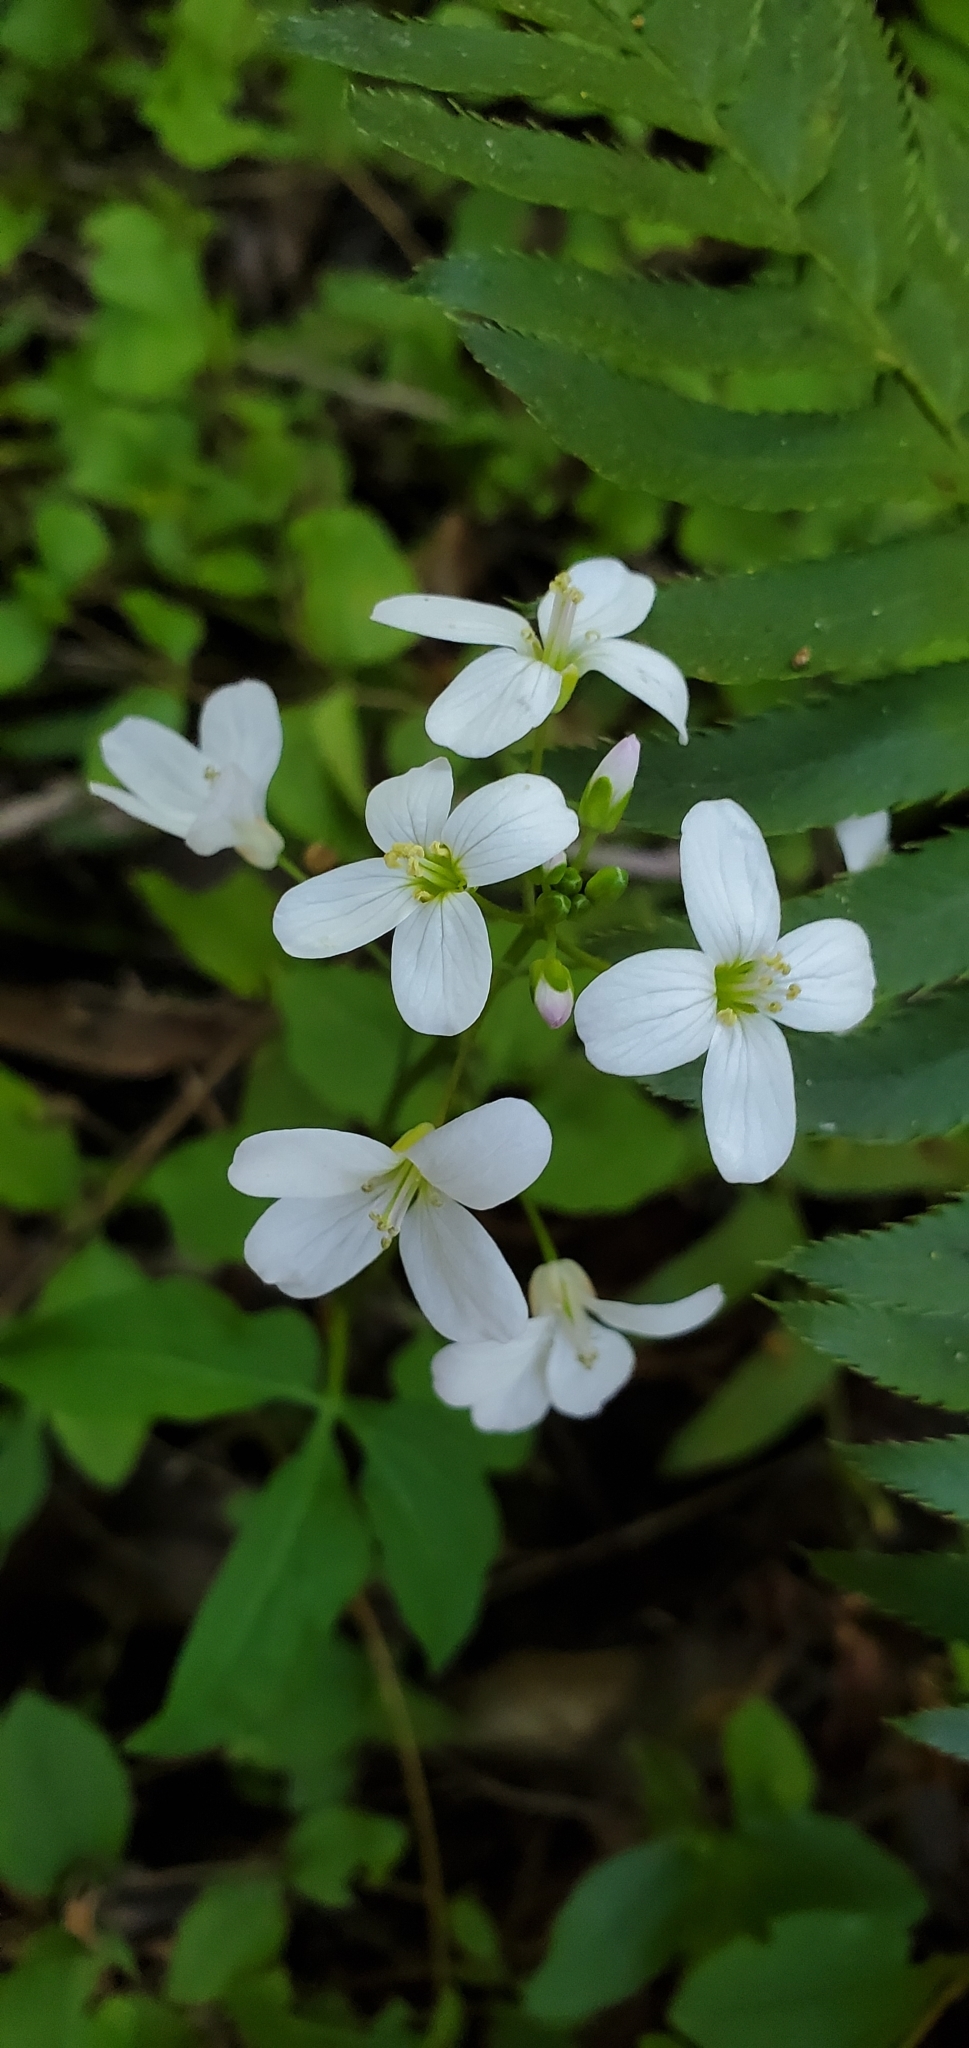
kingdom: Plantae
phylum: Tracheophyta
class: Magnoliopsida
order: Brassicales
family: Brassicaceae
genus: Cardamine
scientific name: Cardamine californica
